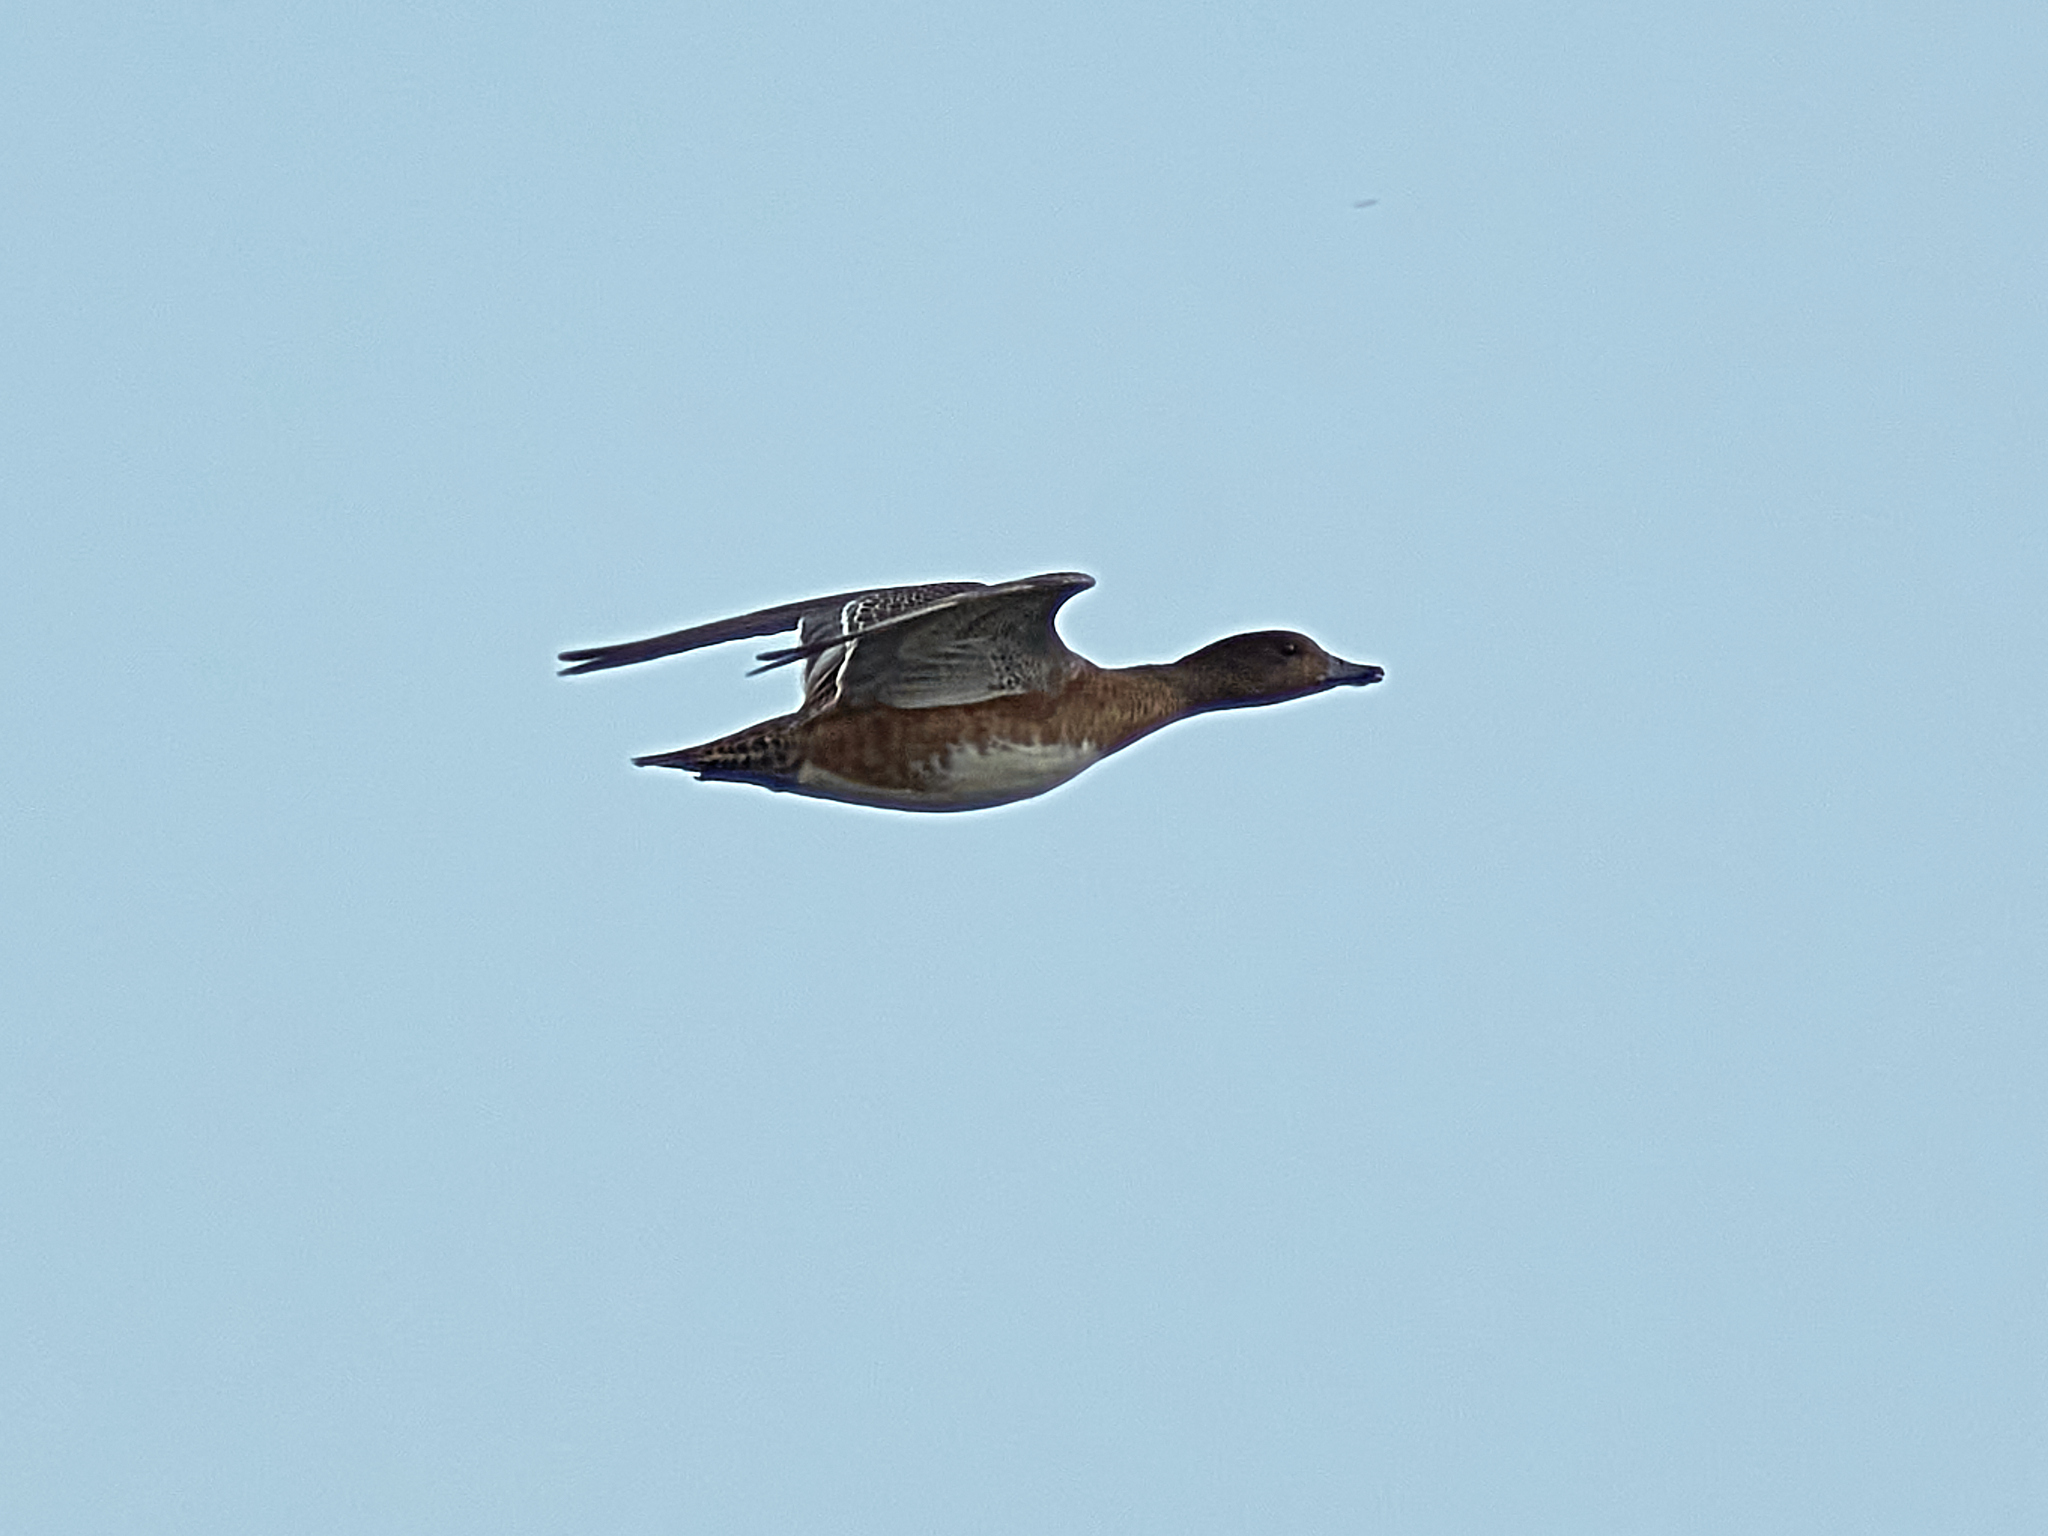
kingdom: Animalia
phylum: Chordata
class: Aves
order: Anseriformes
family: Anatidae
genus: Mareca
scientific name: Mareca penelope
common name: Eurasian wigeon
